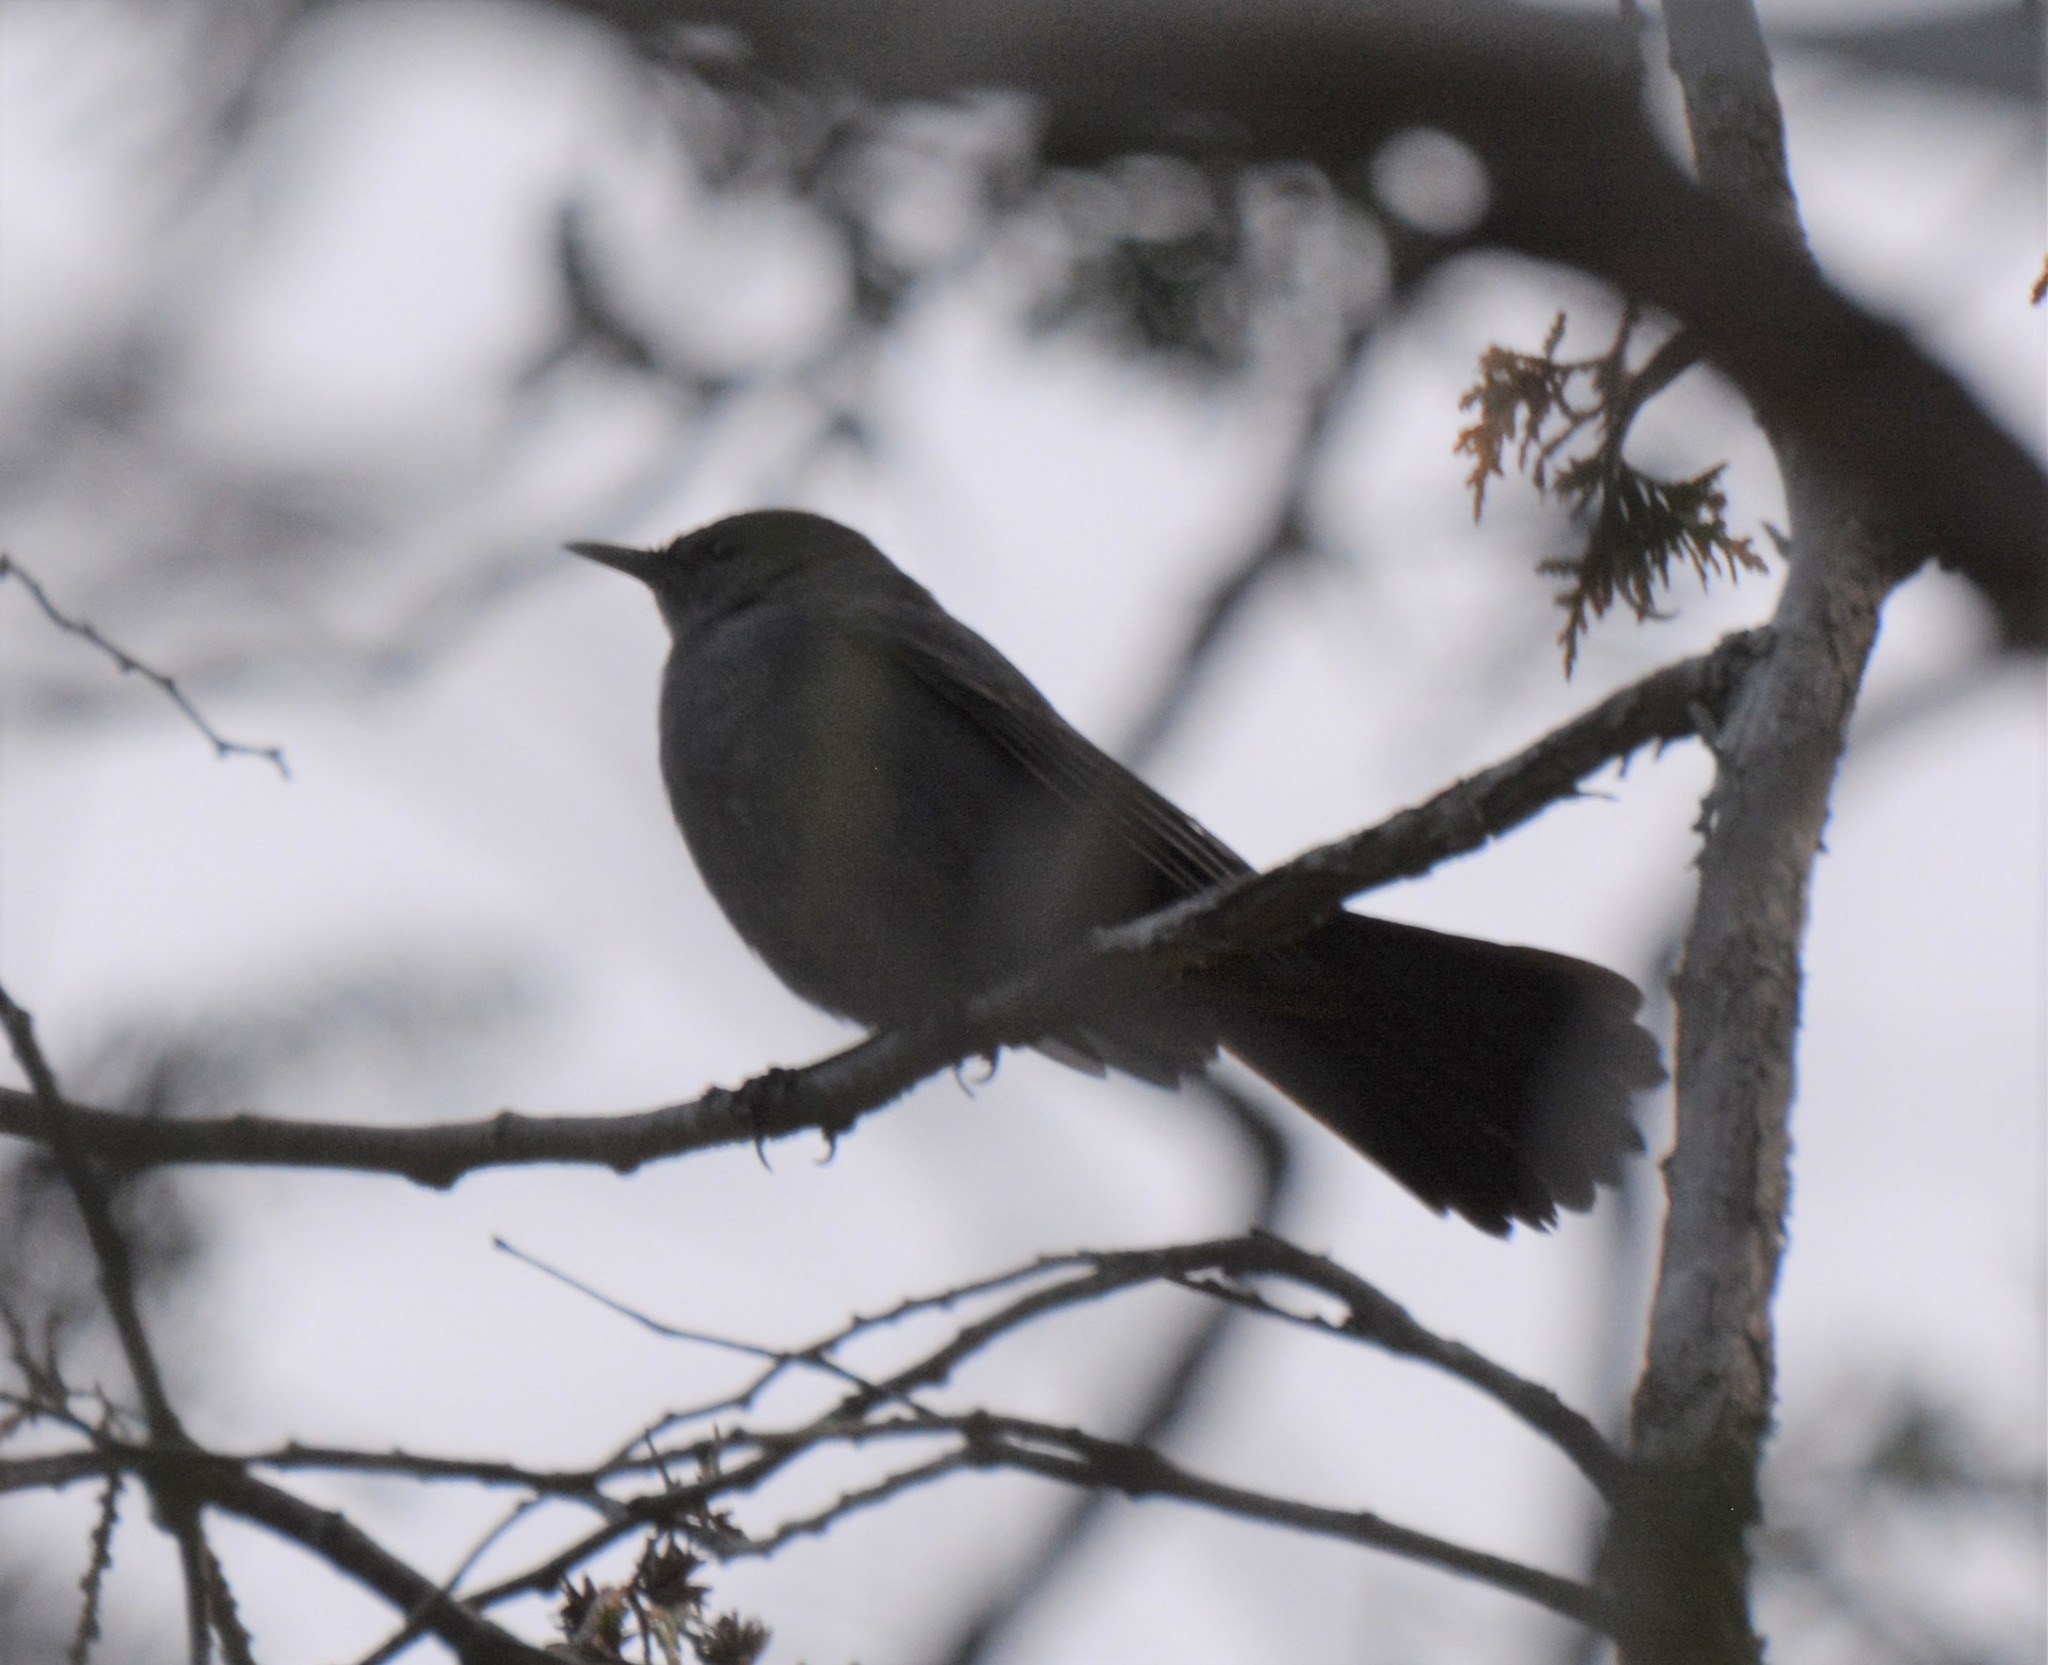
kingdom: Animalia
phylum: Chordata
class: Aves
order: Passeriformes
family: Mimidae
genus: Dumetella
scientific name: Dumetella carolinensis
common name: Gray catbird
